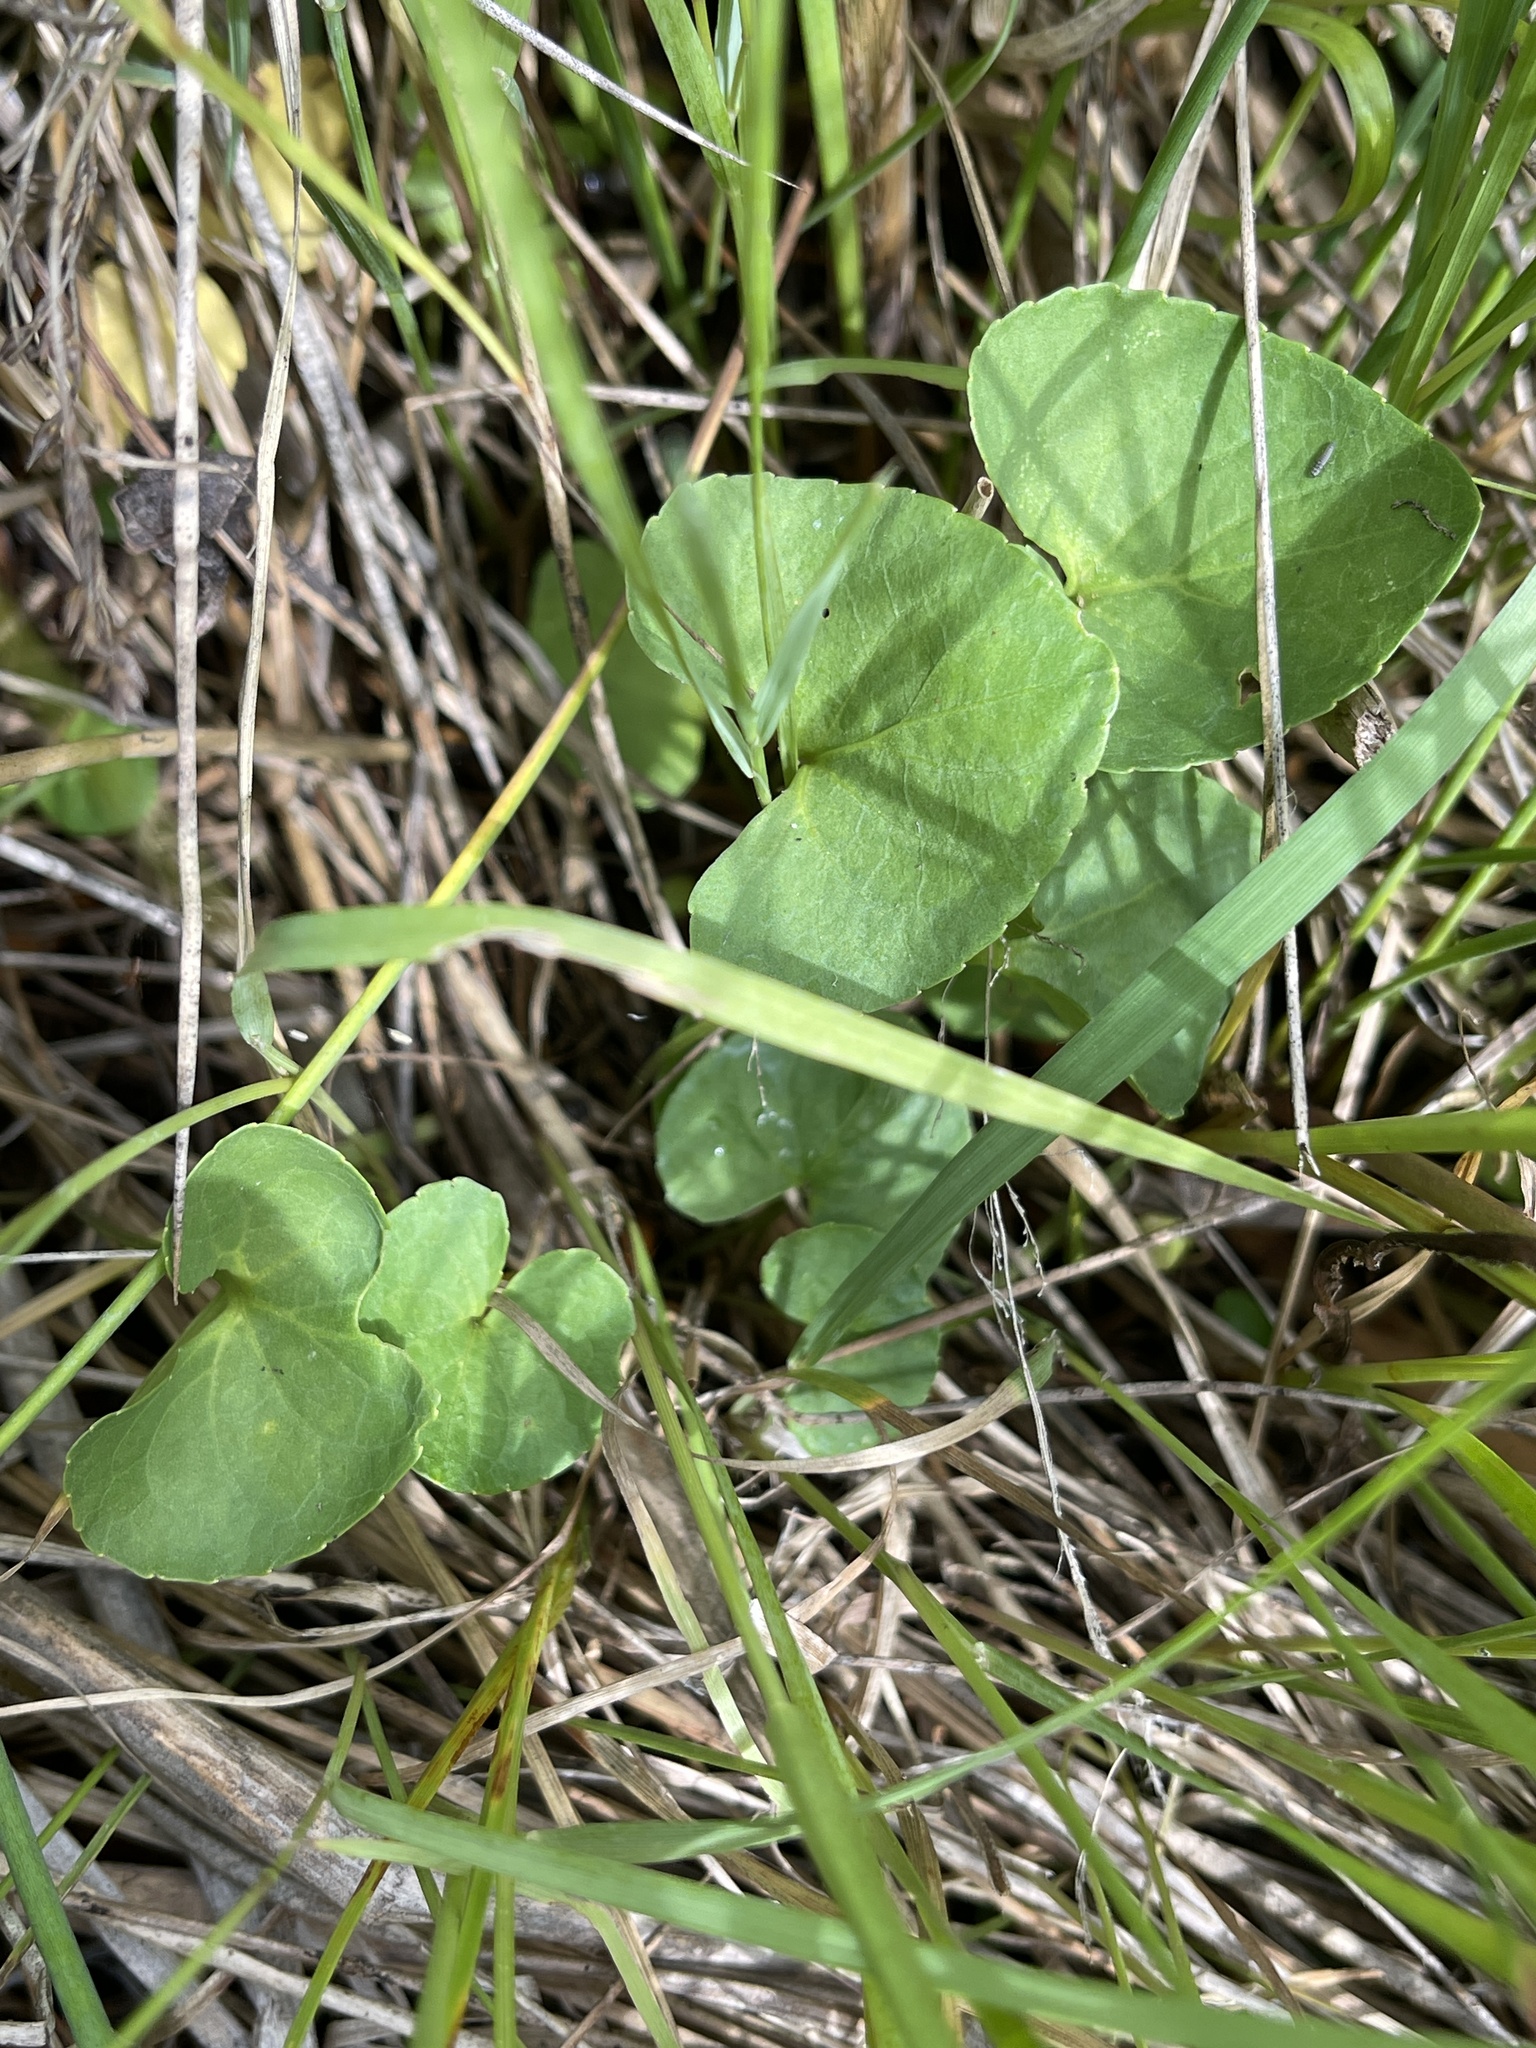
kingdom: Plantae
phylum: Tracheophyta
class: Magnoliopsida
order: Malpighiales
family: Violaceae
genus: Viola
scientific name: Viola nephrophylla
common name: Blue meadow violet
